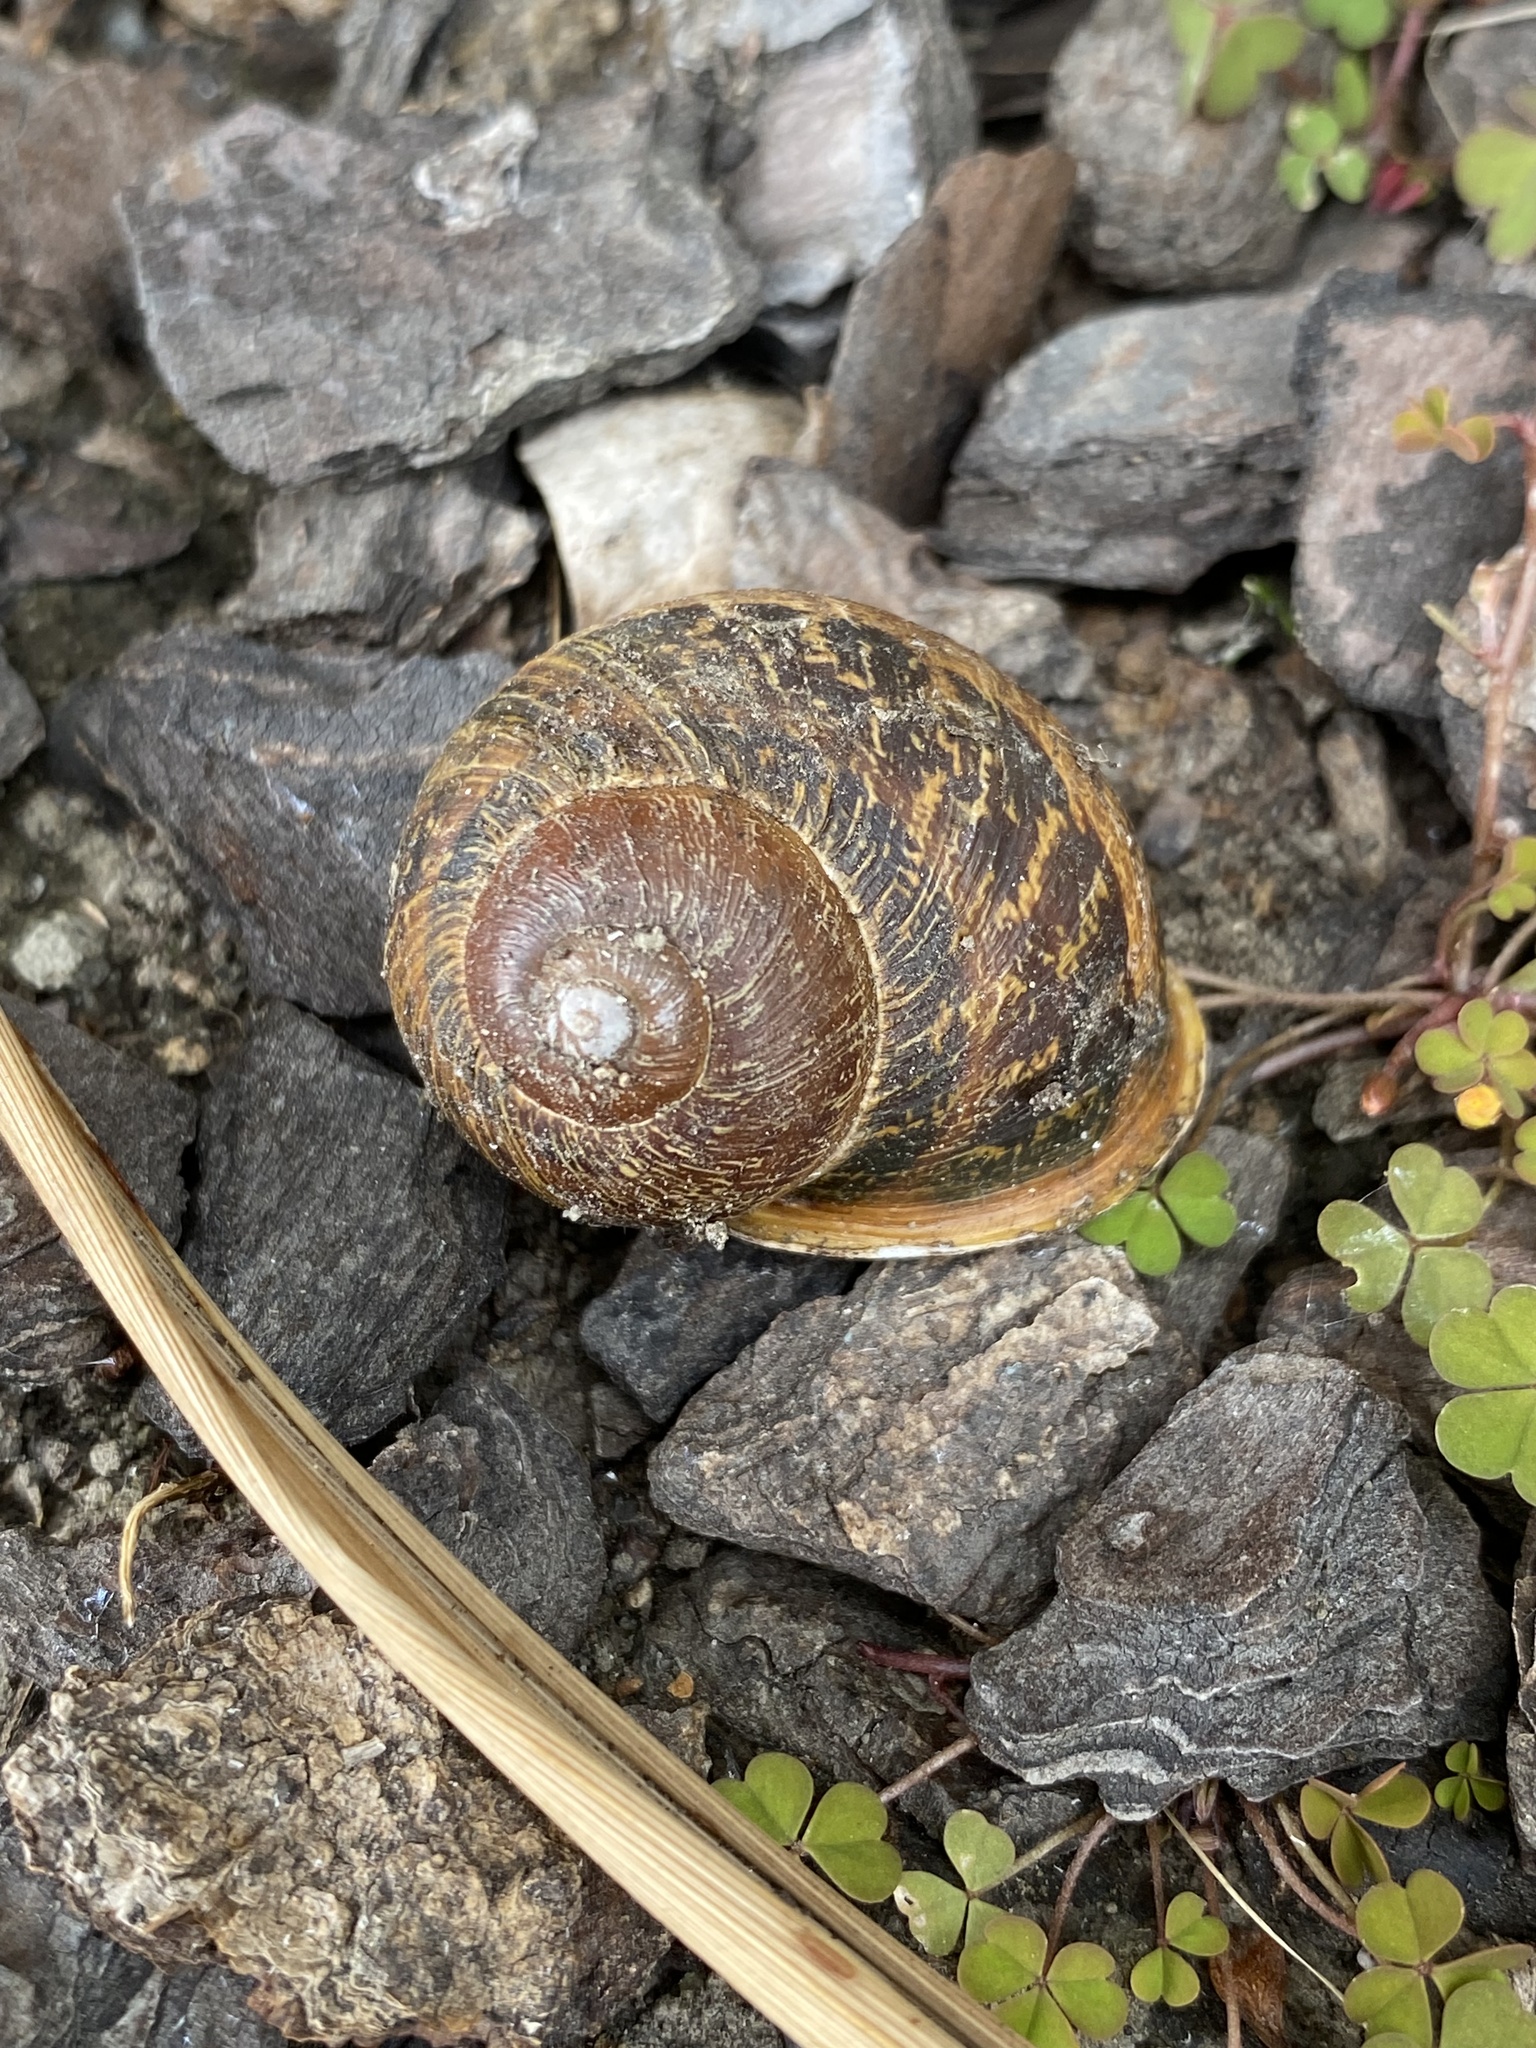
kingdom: Animalia
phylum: Mollusca
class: Gastropoda
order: Stylommatophora
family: Helicidae
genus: Cornu
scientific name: Cornu aspersum
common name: Brown garden snail
